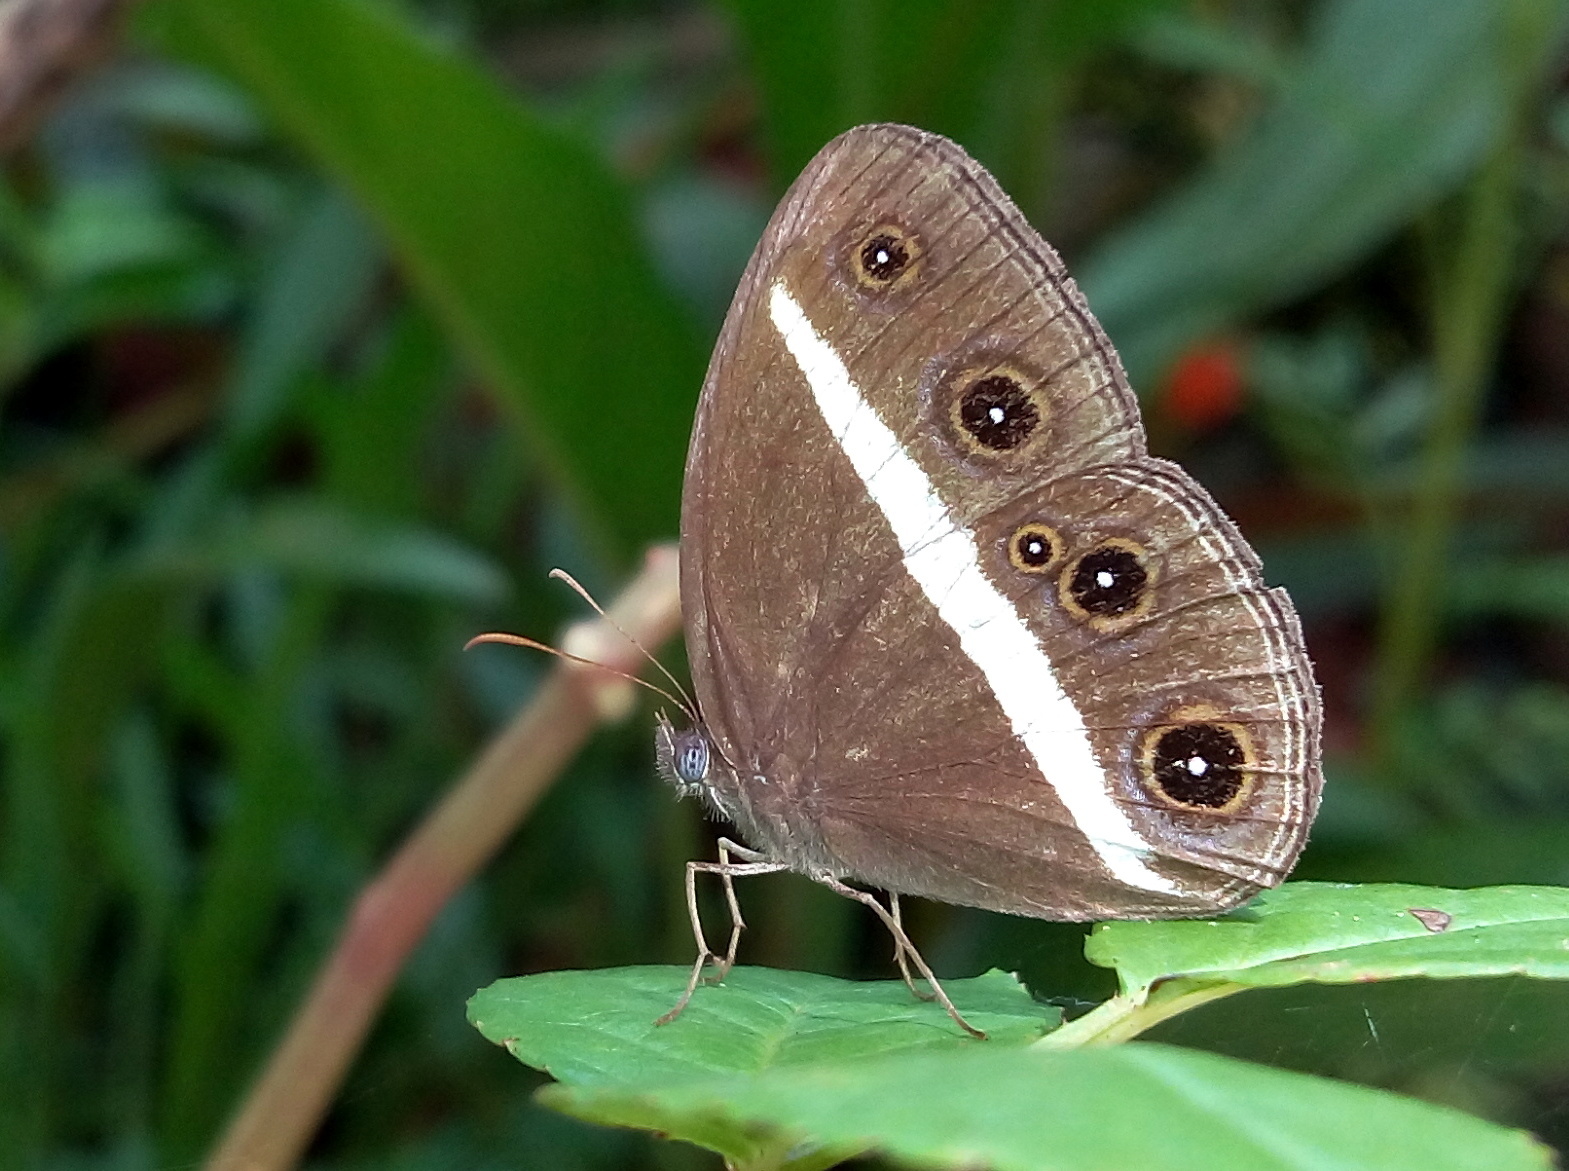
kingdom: Animalia
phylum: Arthropoda
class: Insecta
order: Lepidoptera
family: Nymphalidae
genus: Orsotriaena
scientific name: Orsotriaena medus
